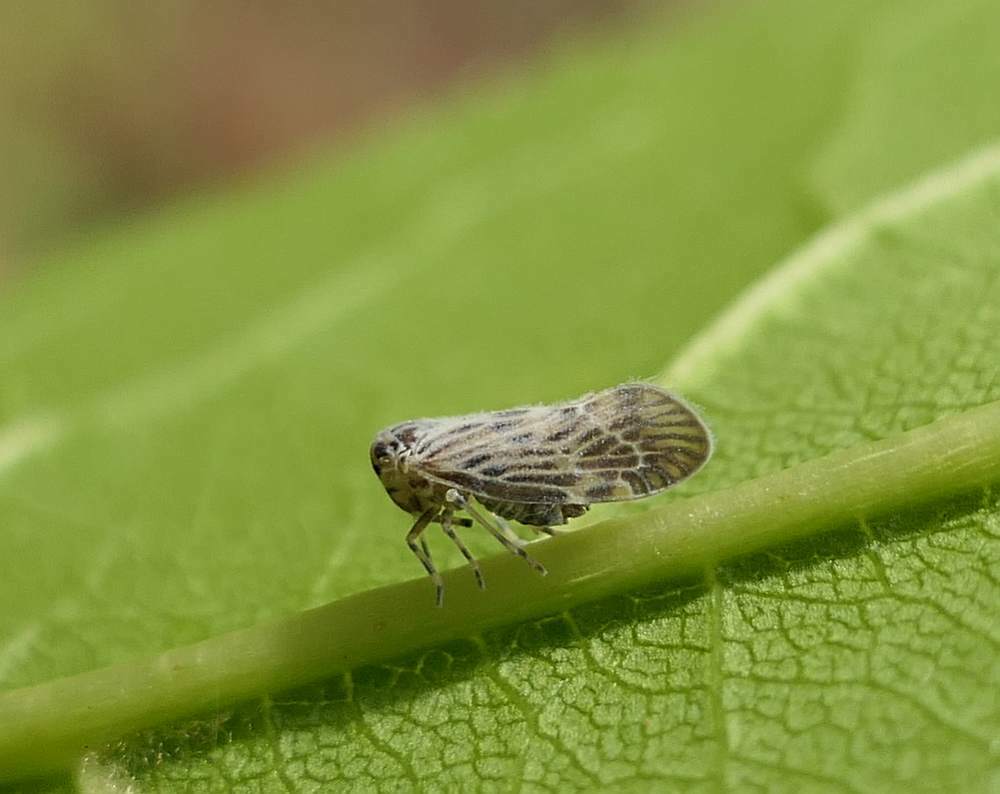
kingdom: Animalia
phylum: Arthropoda
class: Insecta
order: Hemiptera
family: Derbidae
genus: Cedusa
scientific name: Cedusa maculata
